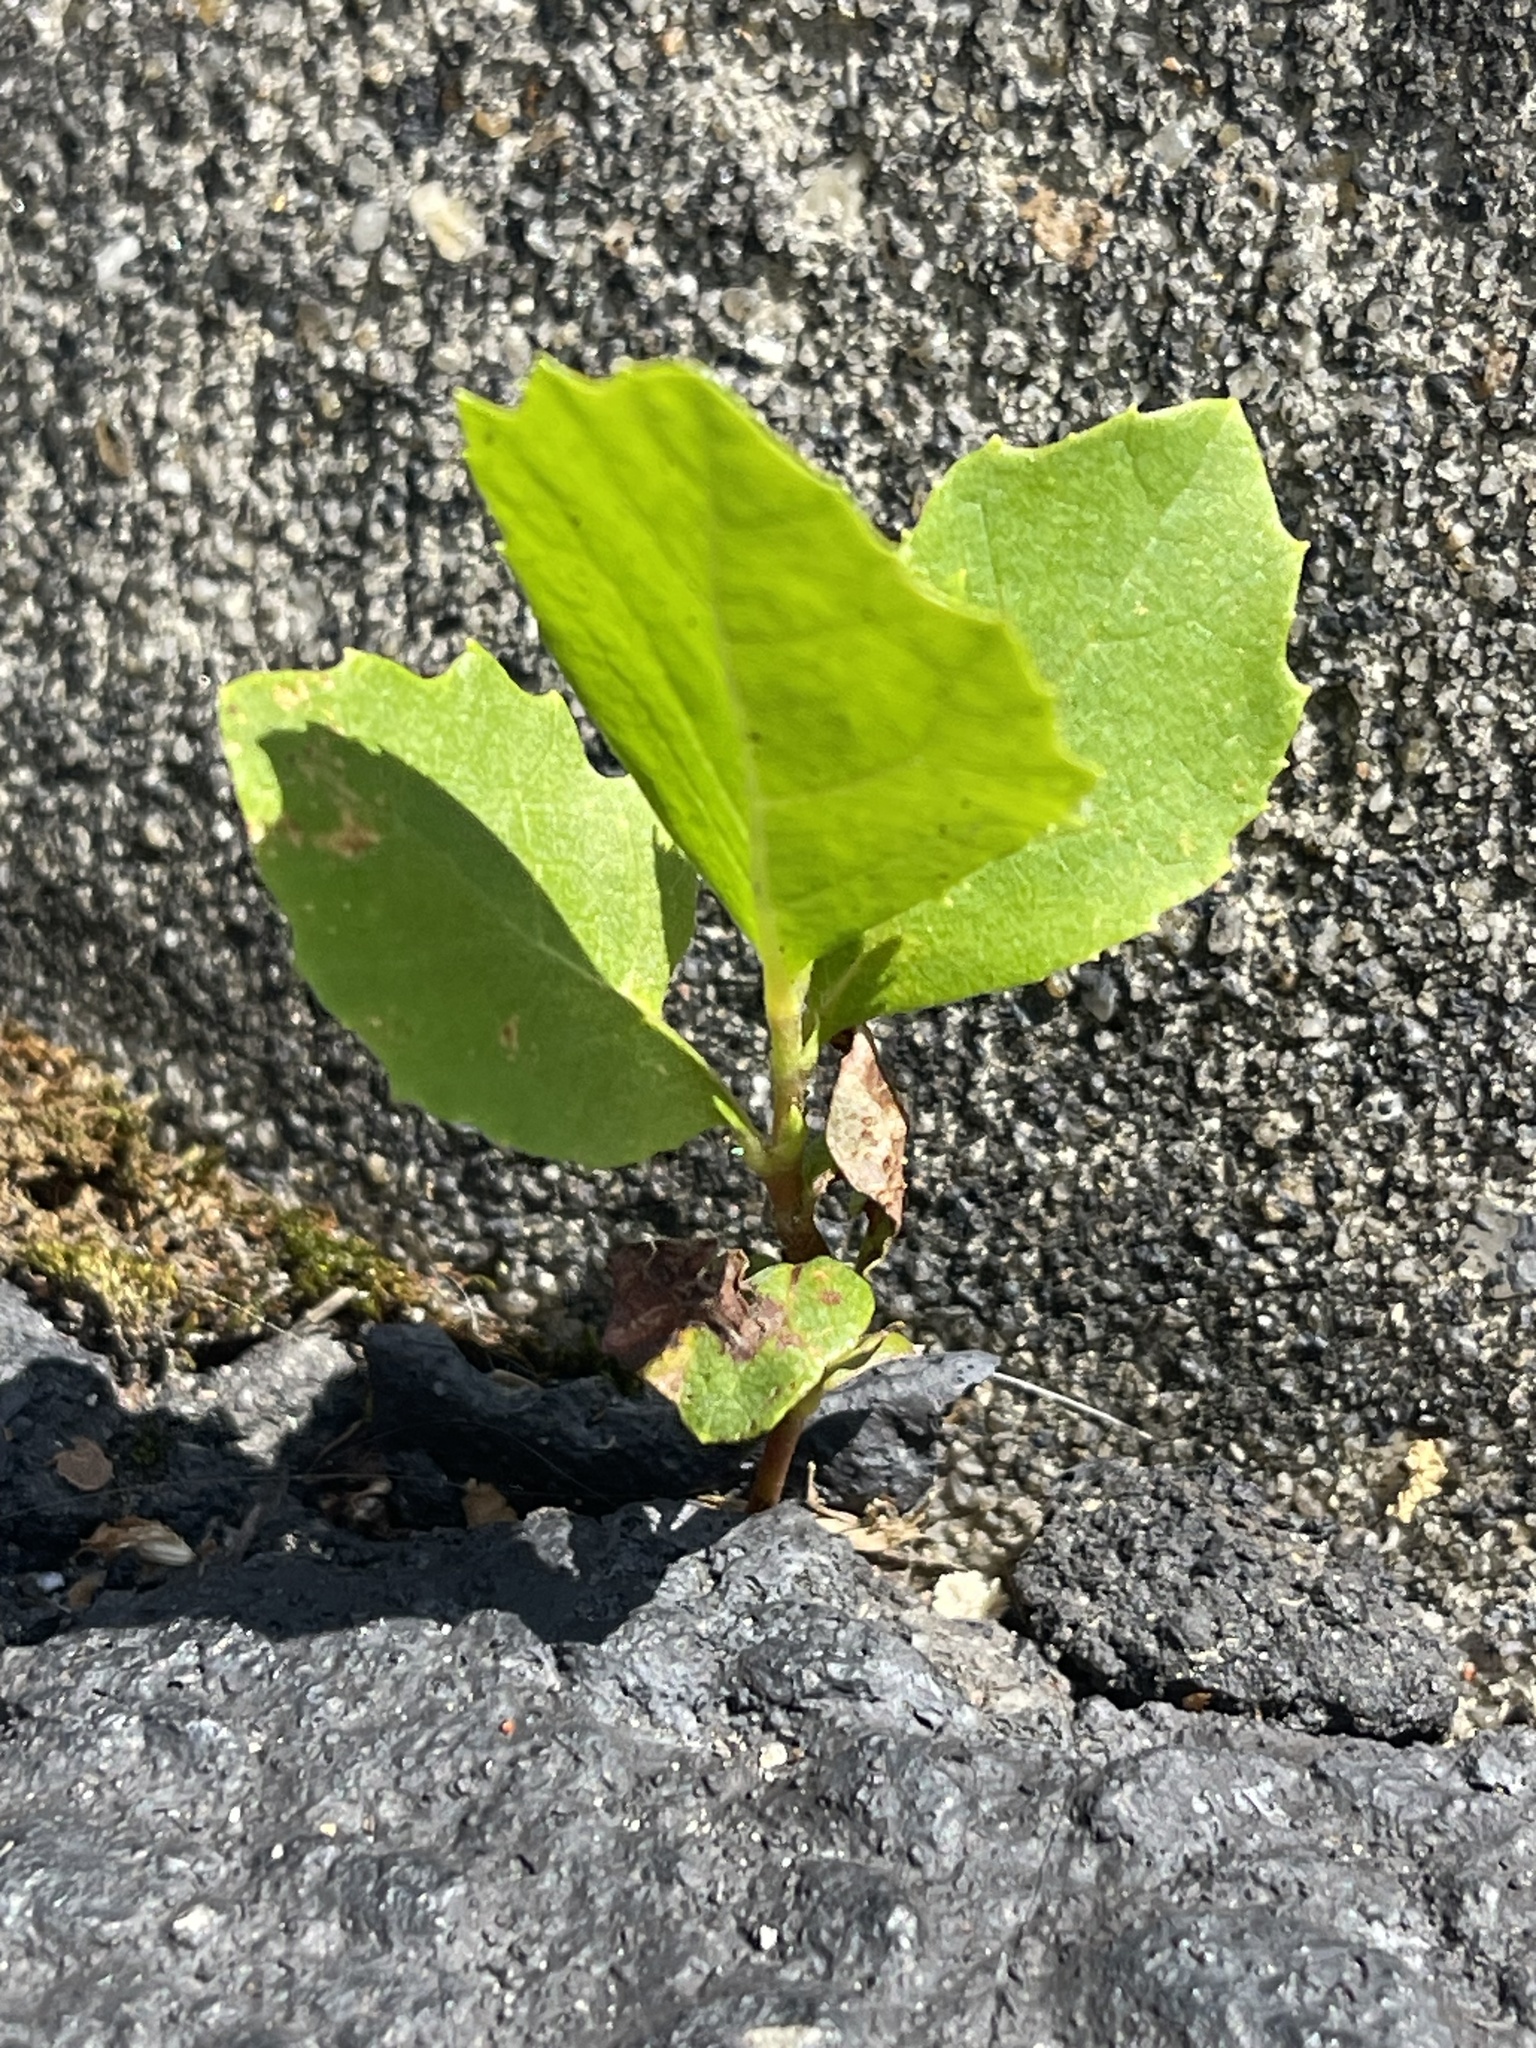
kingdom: Plantae
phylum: Tracheophyta
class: Magnoliopsida
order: Proteales
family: Platanaceae
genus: Platanus
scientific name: Platanus occidentalis
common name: American sycamore
